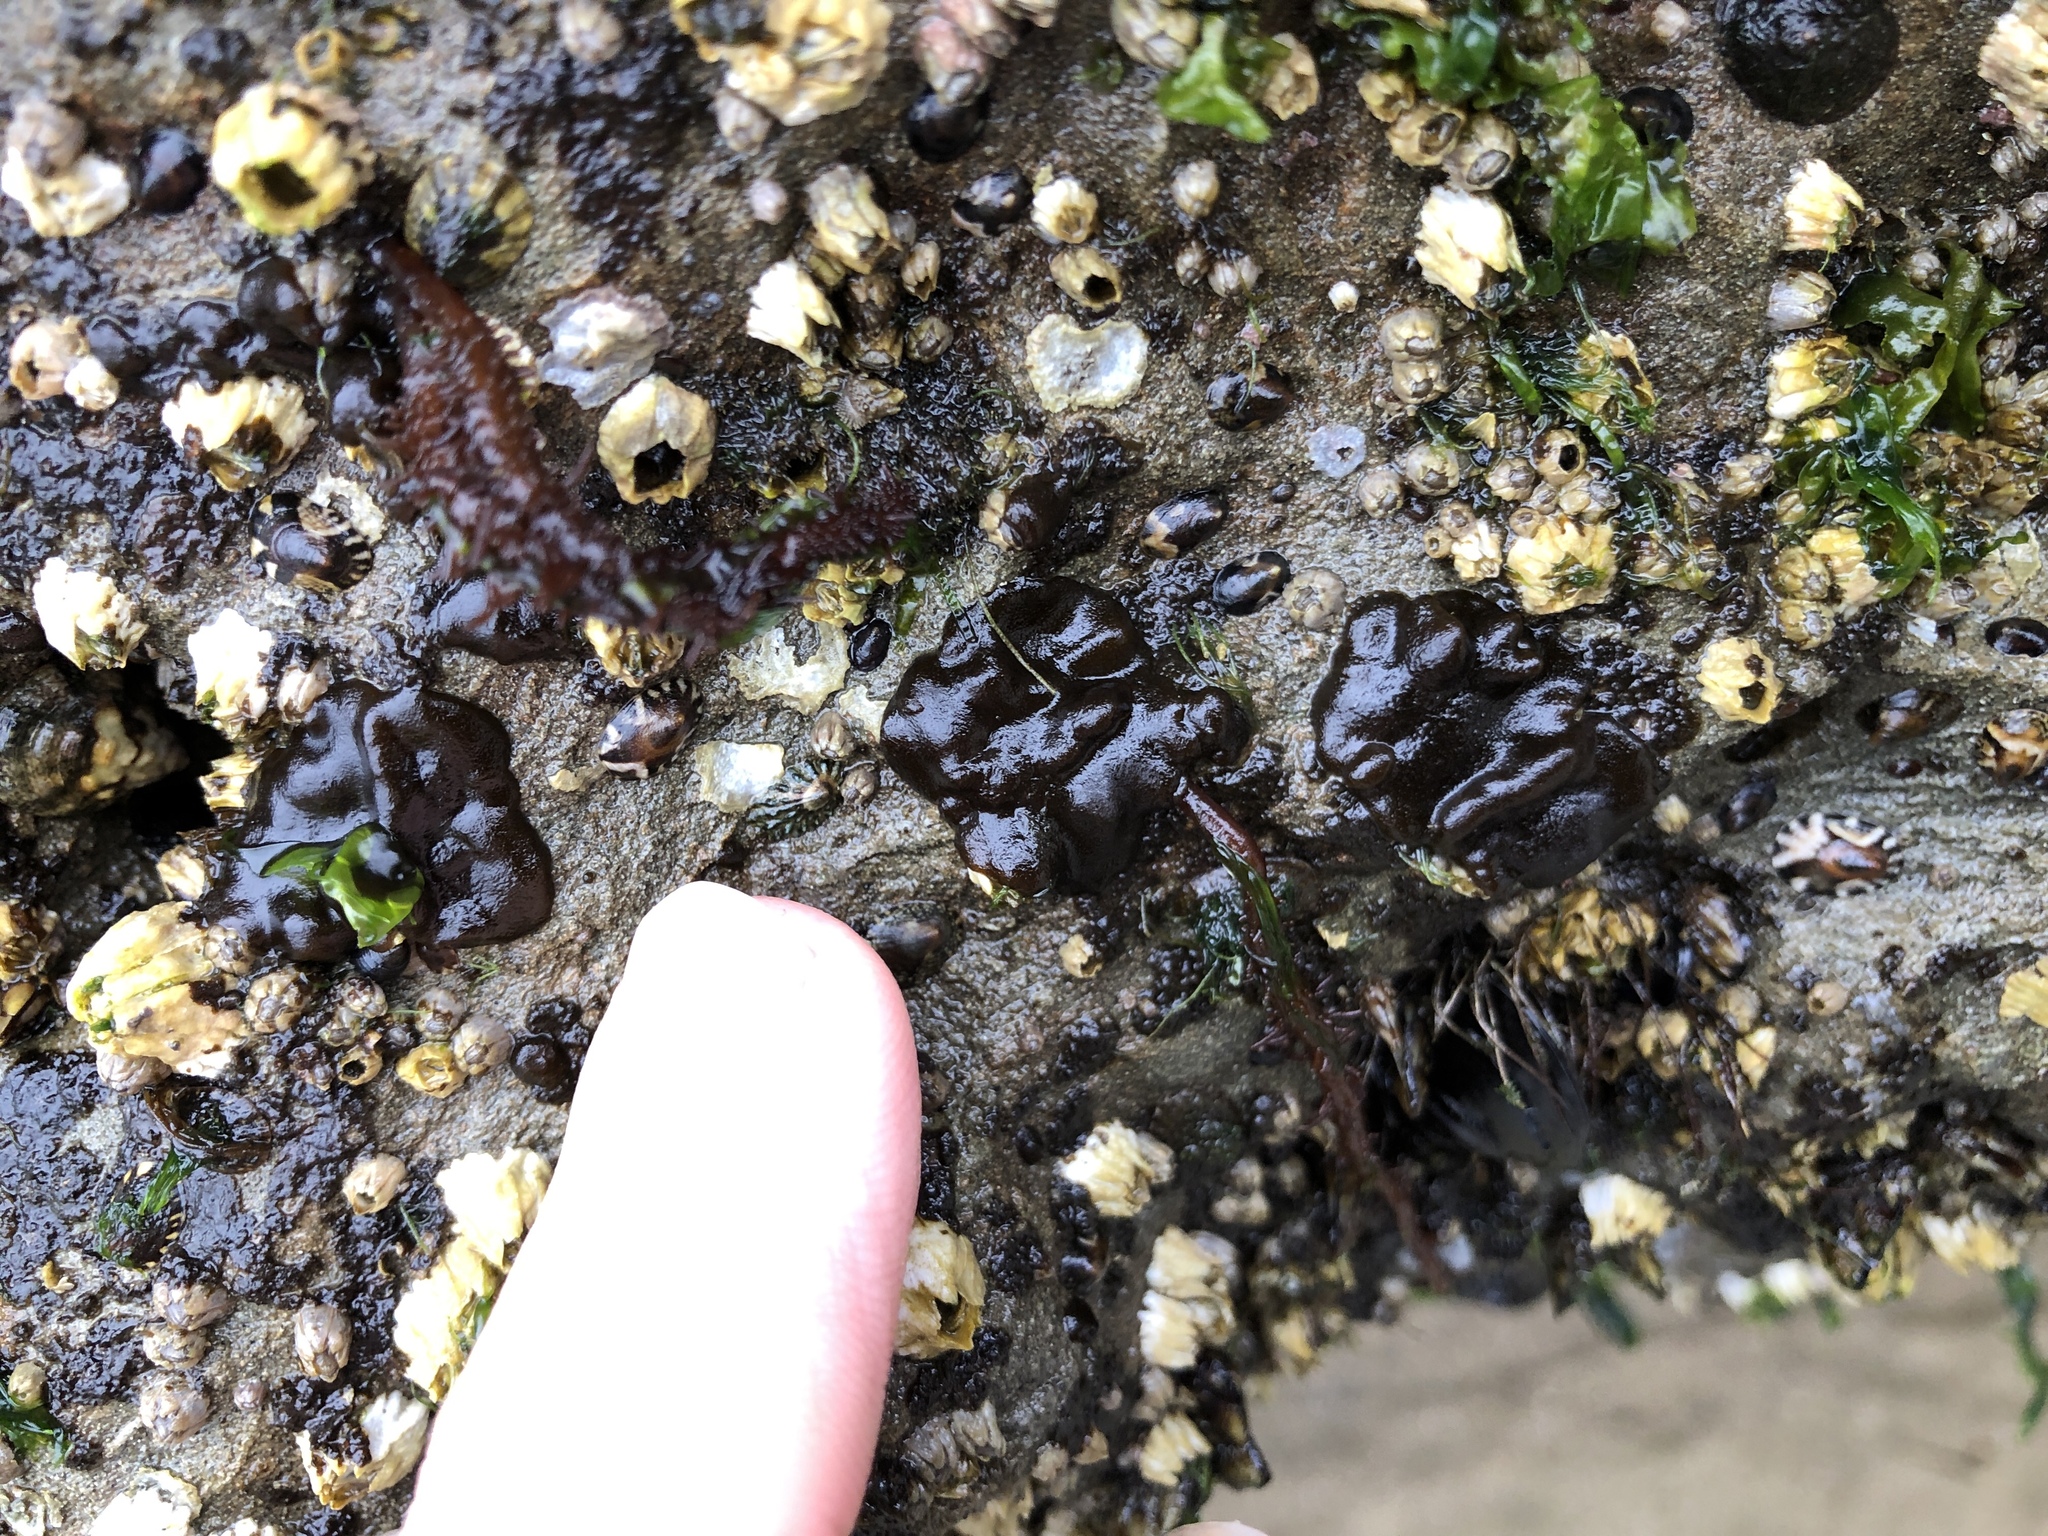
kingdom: Chromista
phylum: Ochrophyta
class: Phaeophyceae
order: Ectocarpales
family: Petrospongiaceae
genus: Petrospongium
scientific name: Petrospongium rugosum
